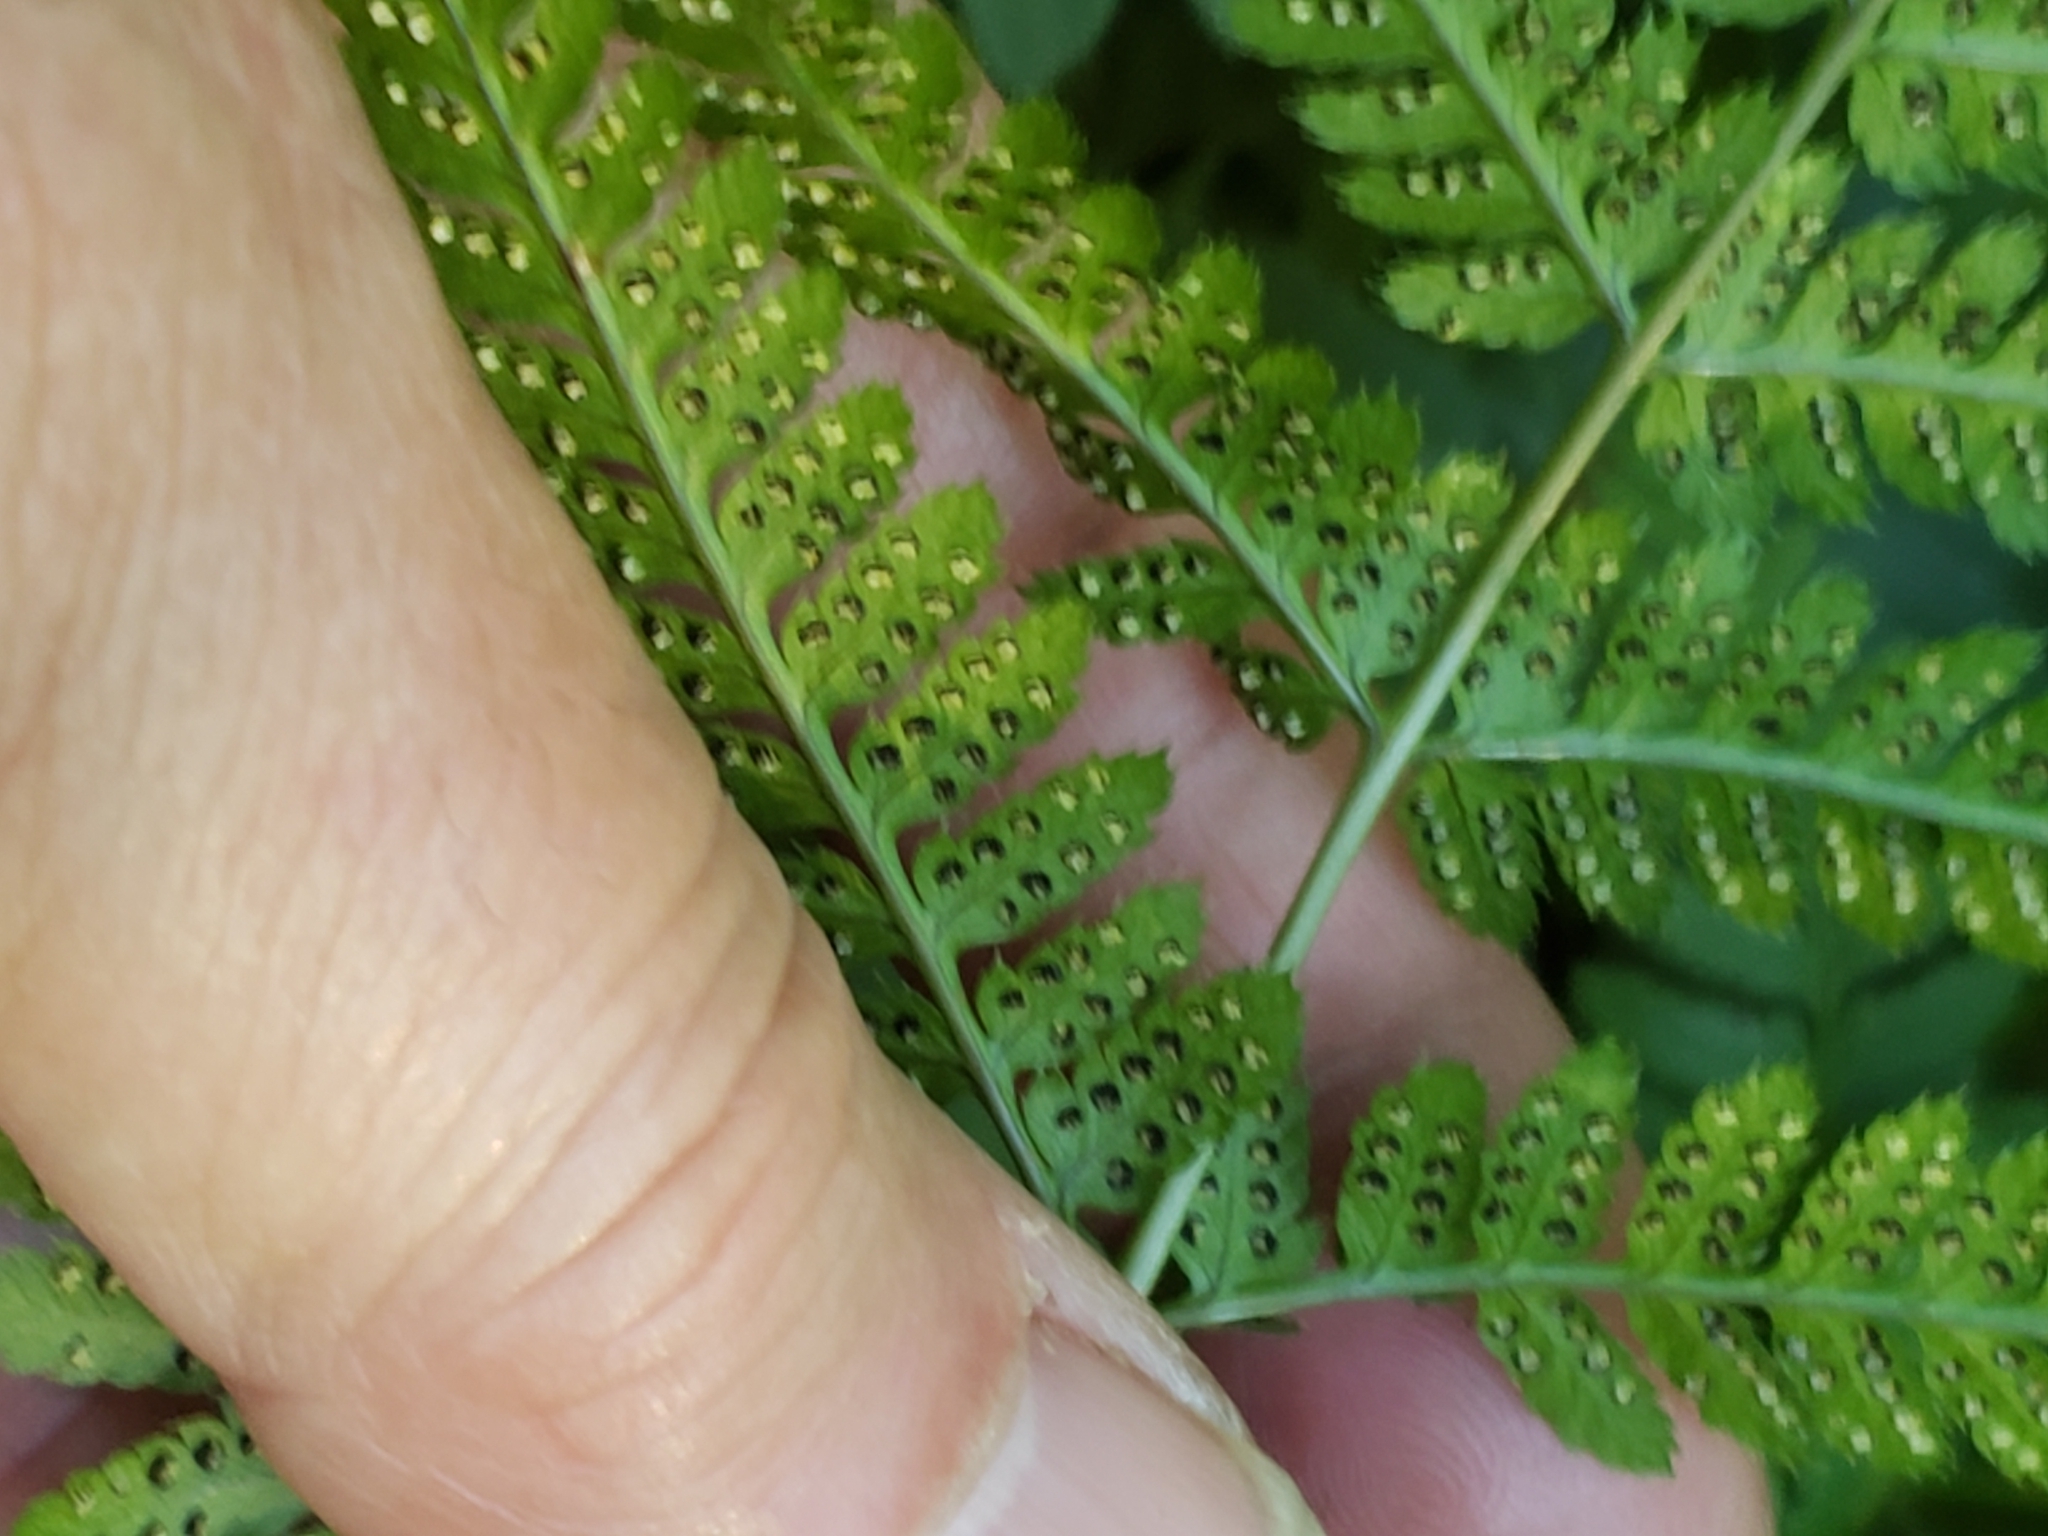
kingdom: Plantae
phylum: Tracheophyta
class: Polypodiopsida
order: Polypodiales
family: Dryopteridaceae
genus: Dryopteris
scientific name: Dryopteris carthusiana
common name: Narrow buckler-fern
